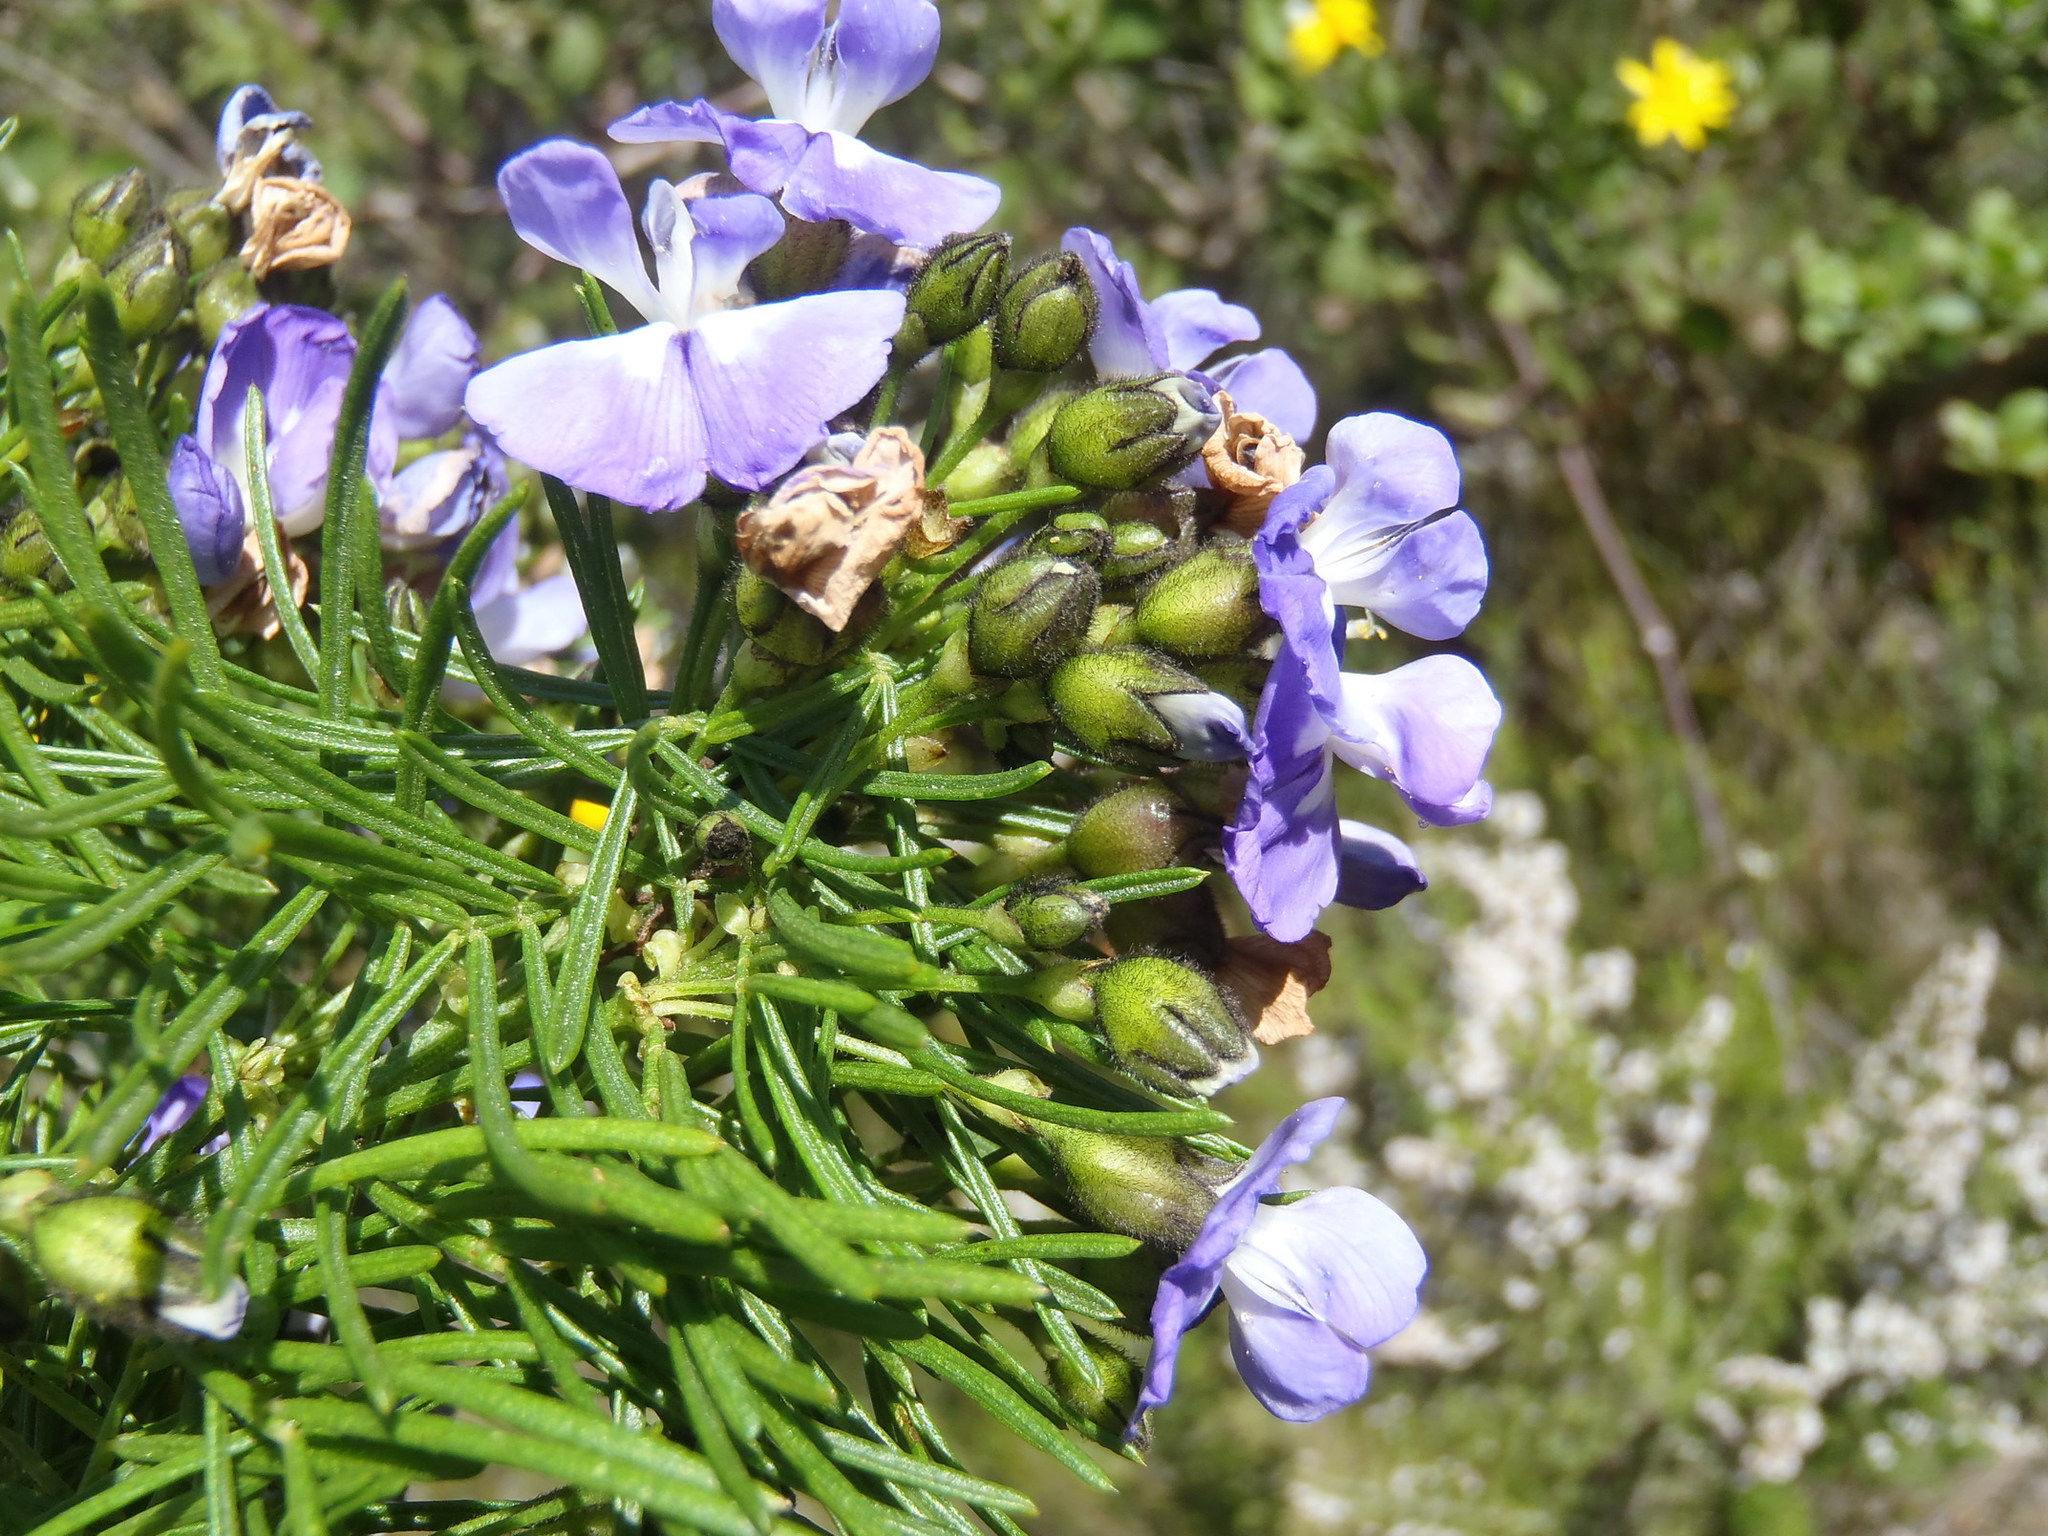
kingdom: Plantae
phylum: Tracheophyta
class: Magnoliopsida
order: Fabales
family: Fabaceae
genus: Psoralea
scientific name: Psoralea affinis
